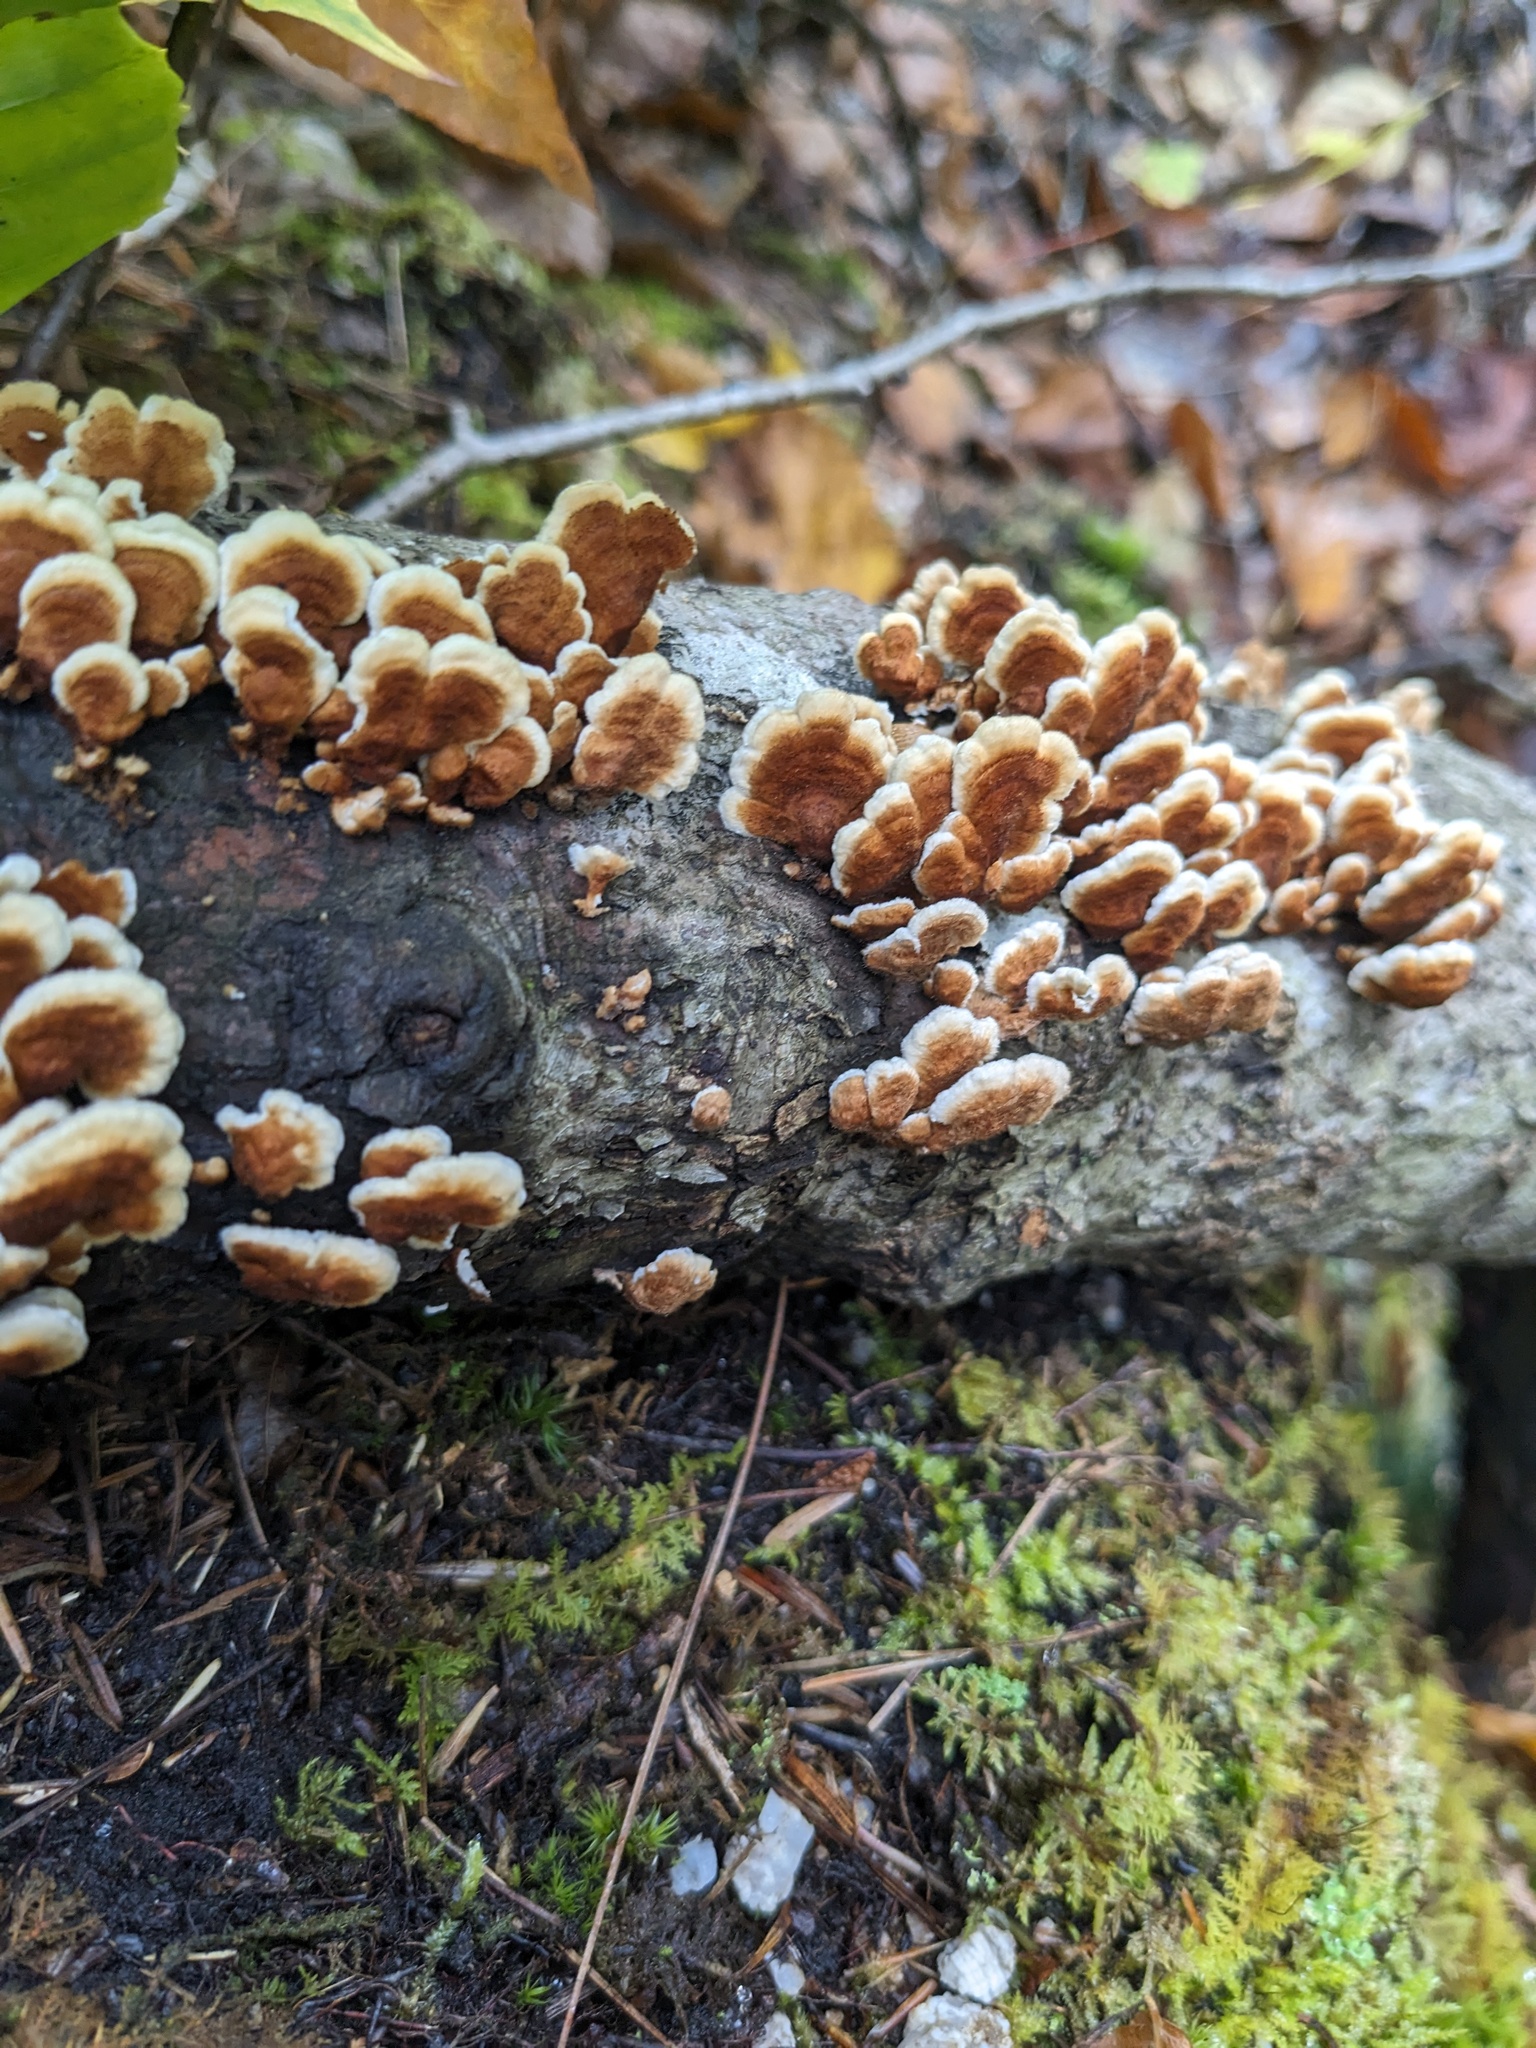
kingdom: Fungi
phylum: Basidiomycota
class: Agaricomycetes
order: Amylocorticiales
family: Amylocorticiaceae
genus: Plicaturopsis
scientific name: Plicaturopsis crispa
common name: Crimped gill
